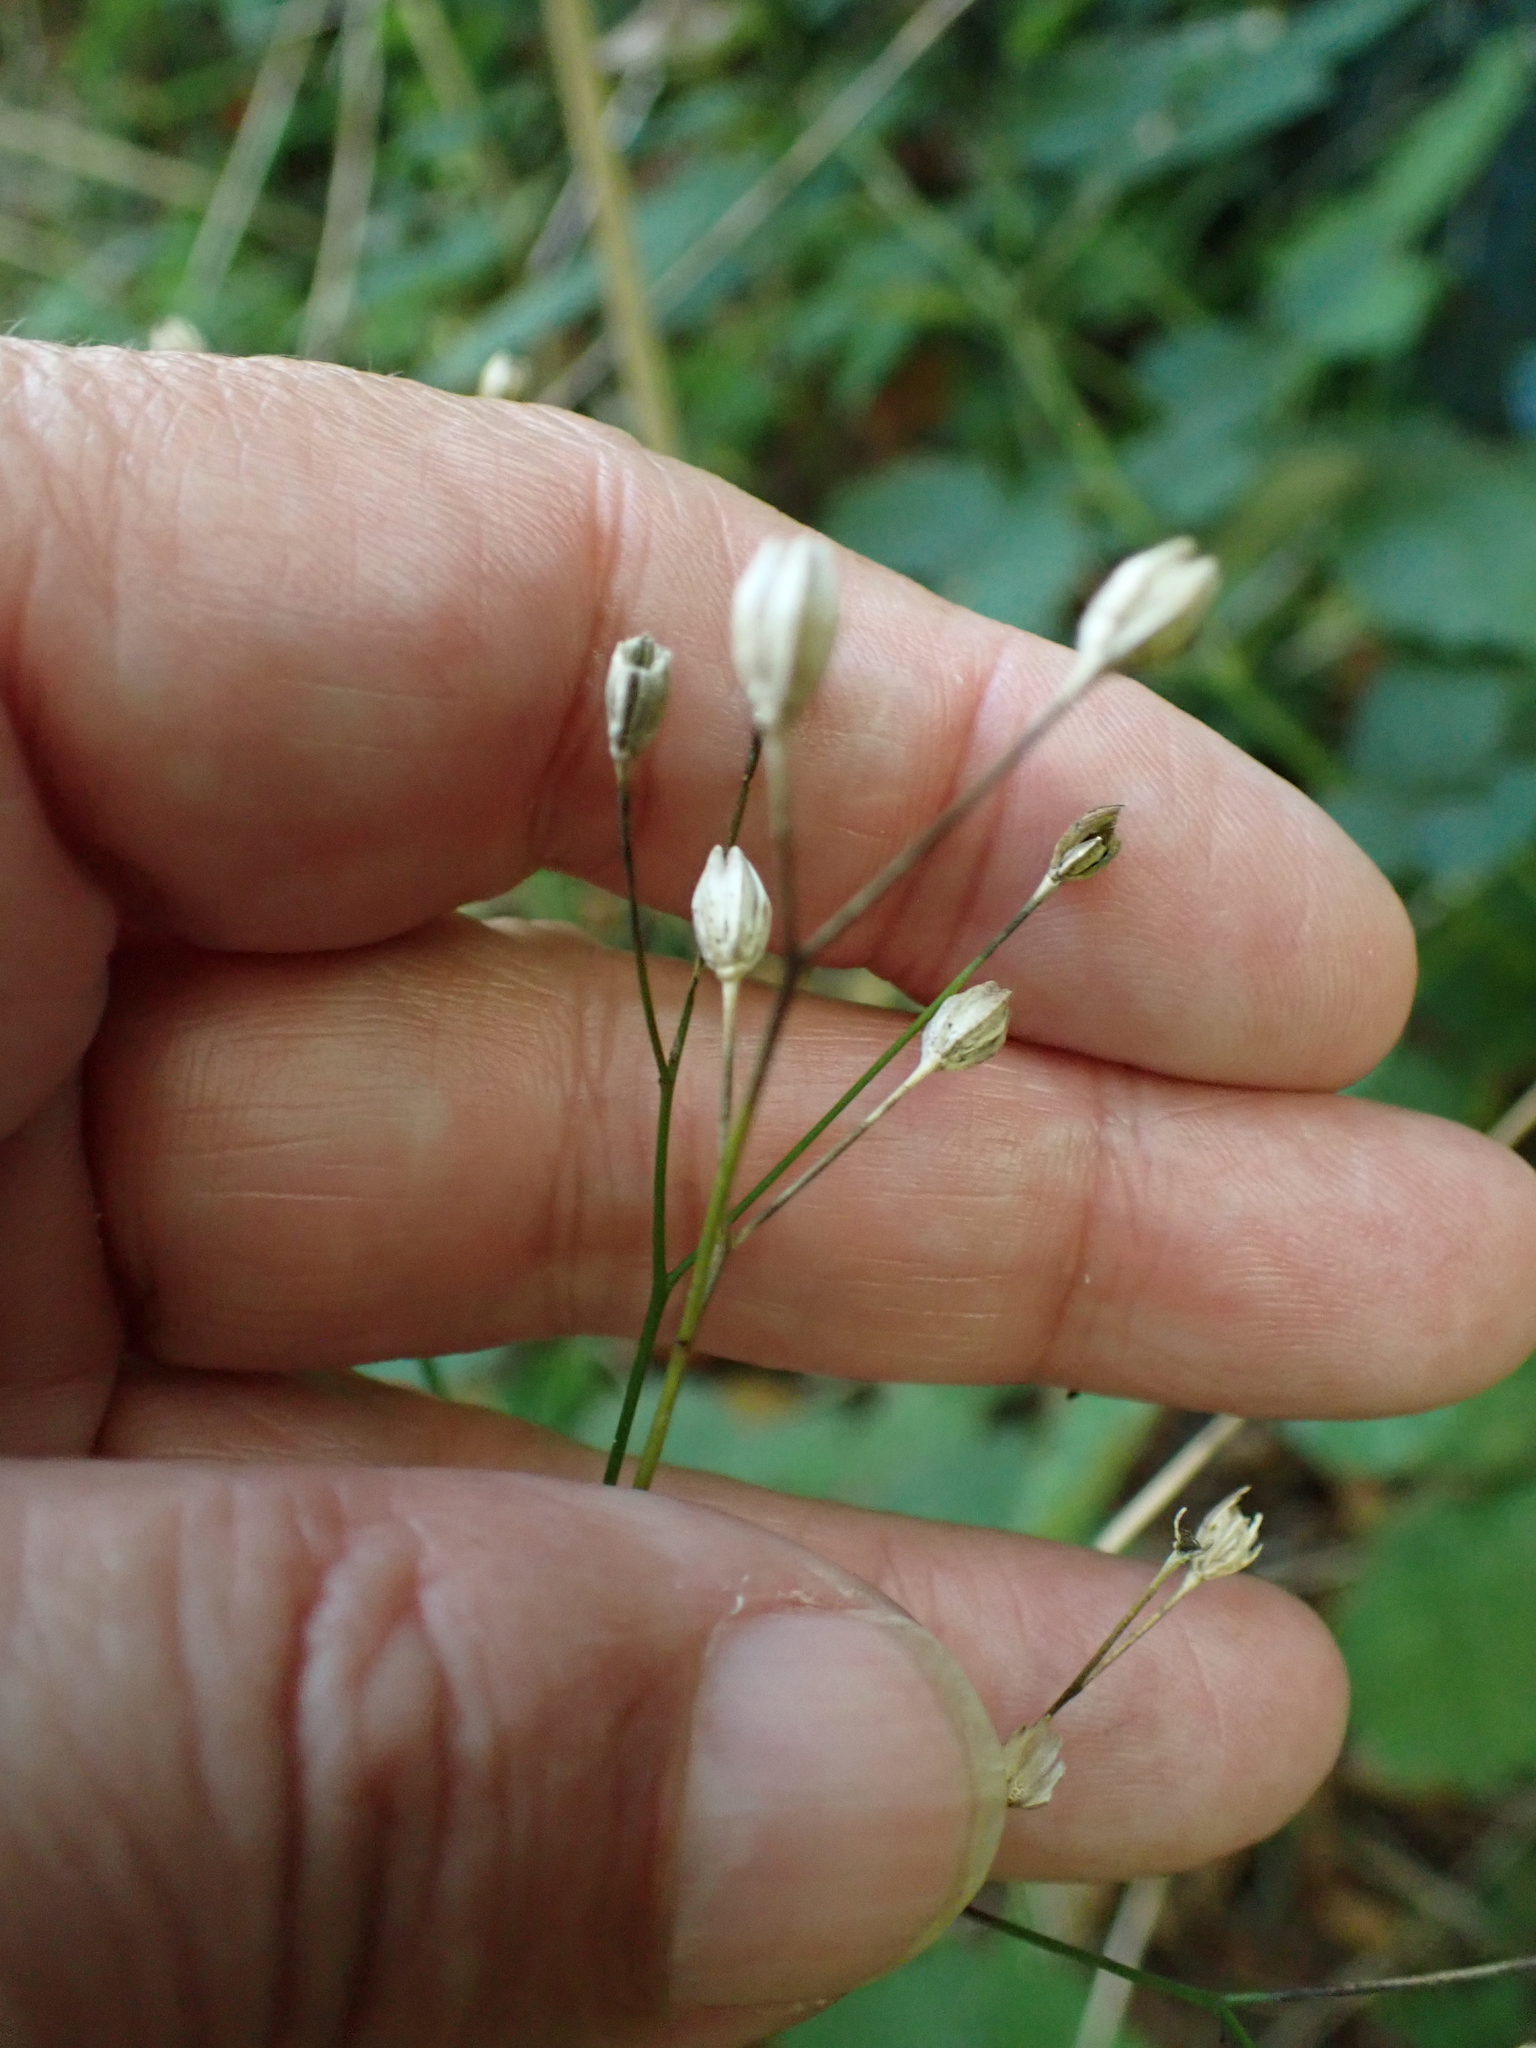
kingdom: Plantae
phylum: Tracheophyta
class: Magnoliopsida
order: Asterales
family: Asteraceae
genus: Lapsana
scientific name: Lapsana communis
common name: Nipplewort
